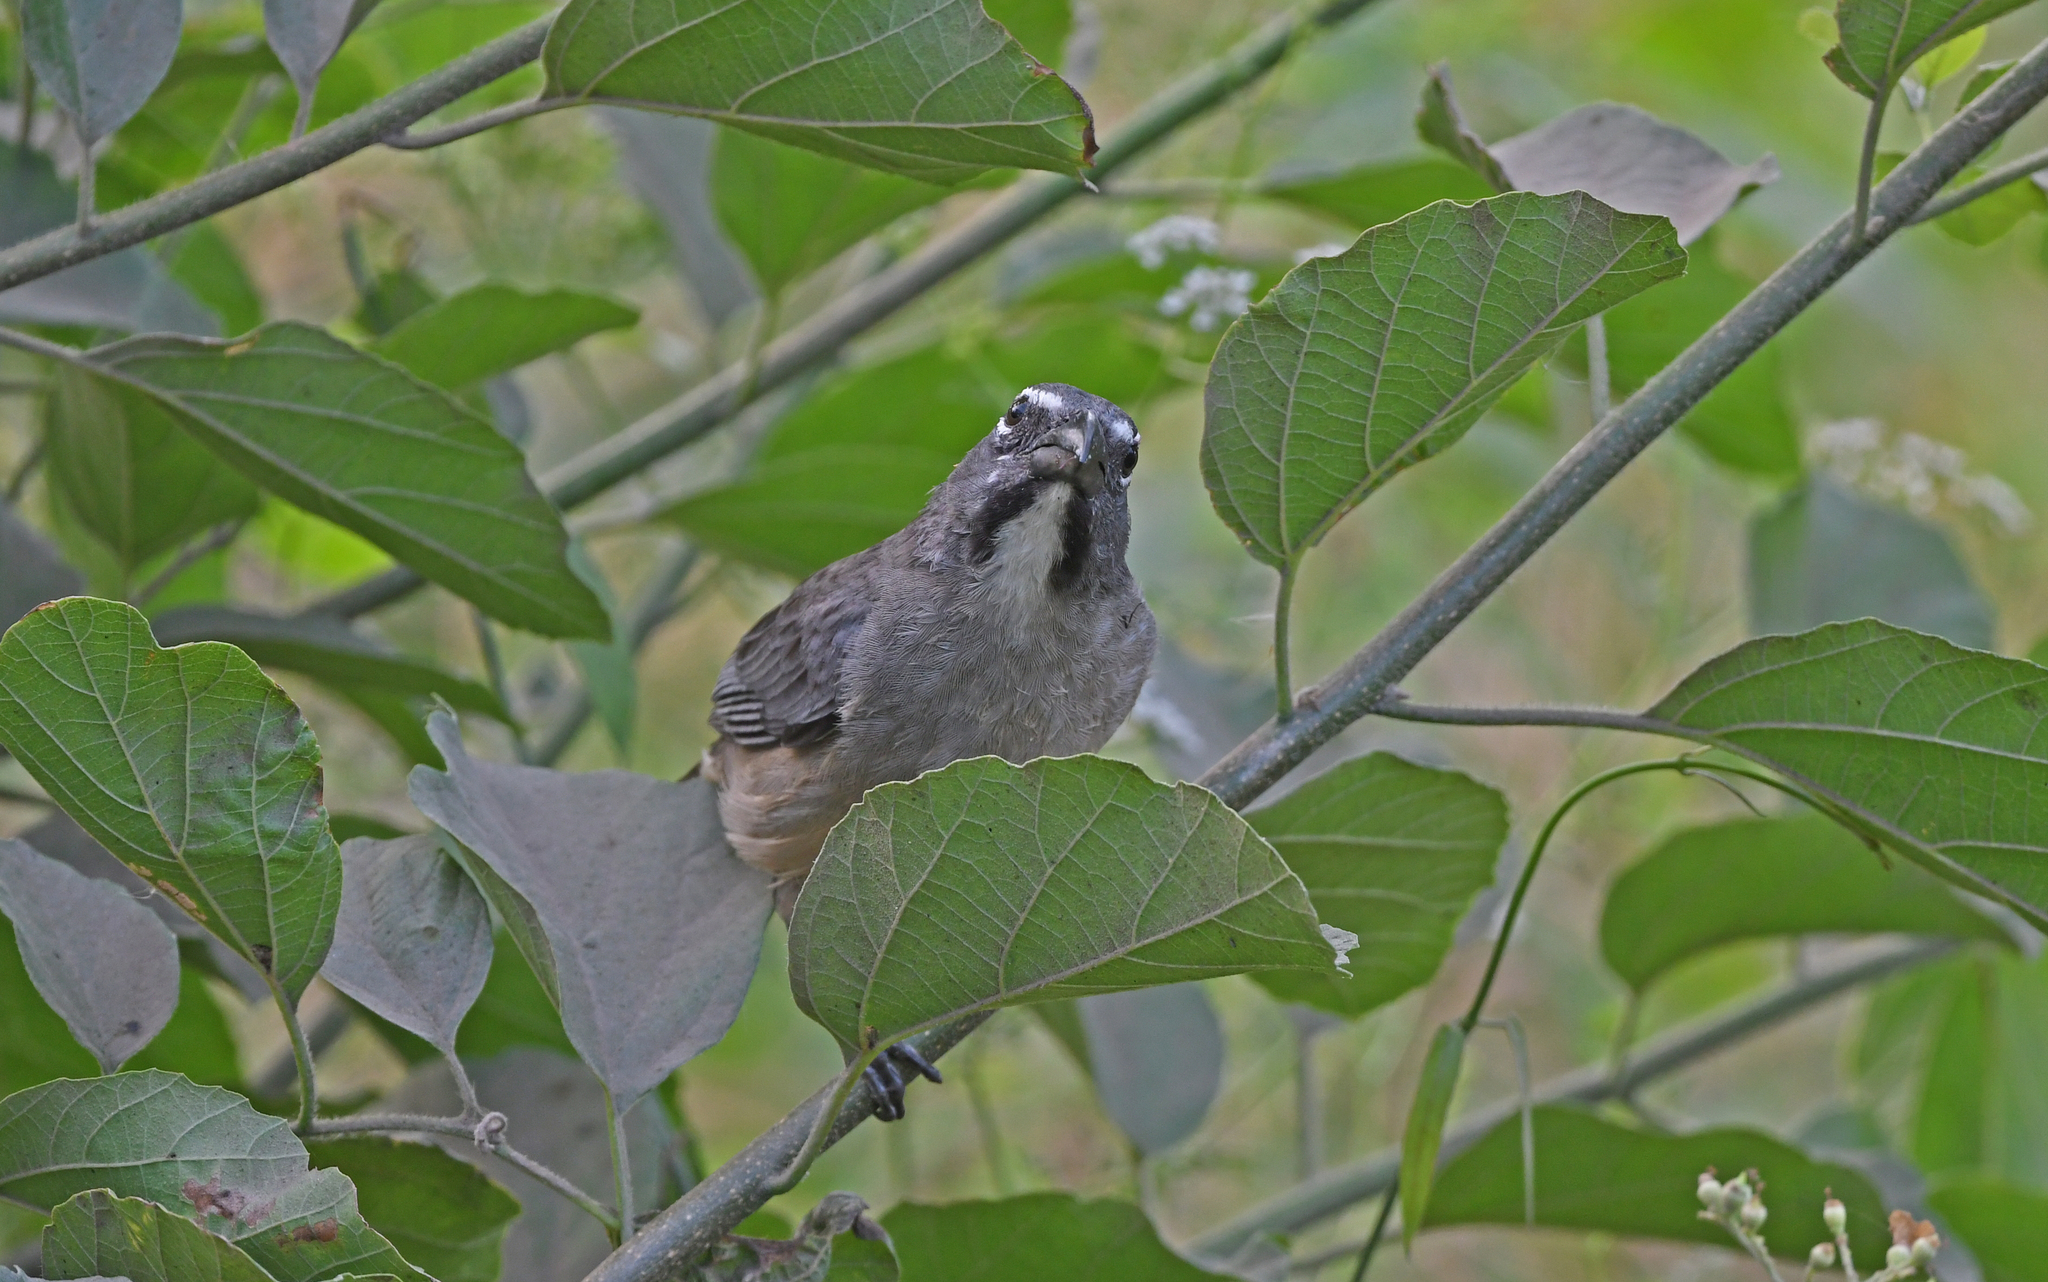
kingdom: Animalia
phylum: Chordata
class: Aves
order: Passeriformes
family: Thraupidae
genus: Saltator
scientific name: Saltator olivascens
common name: Caribbean grey saltator
